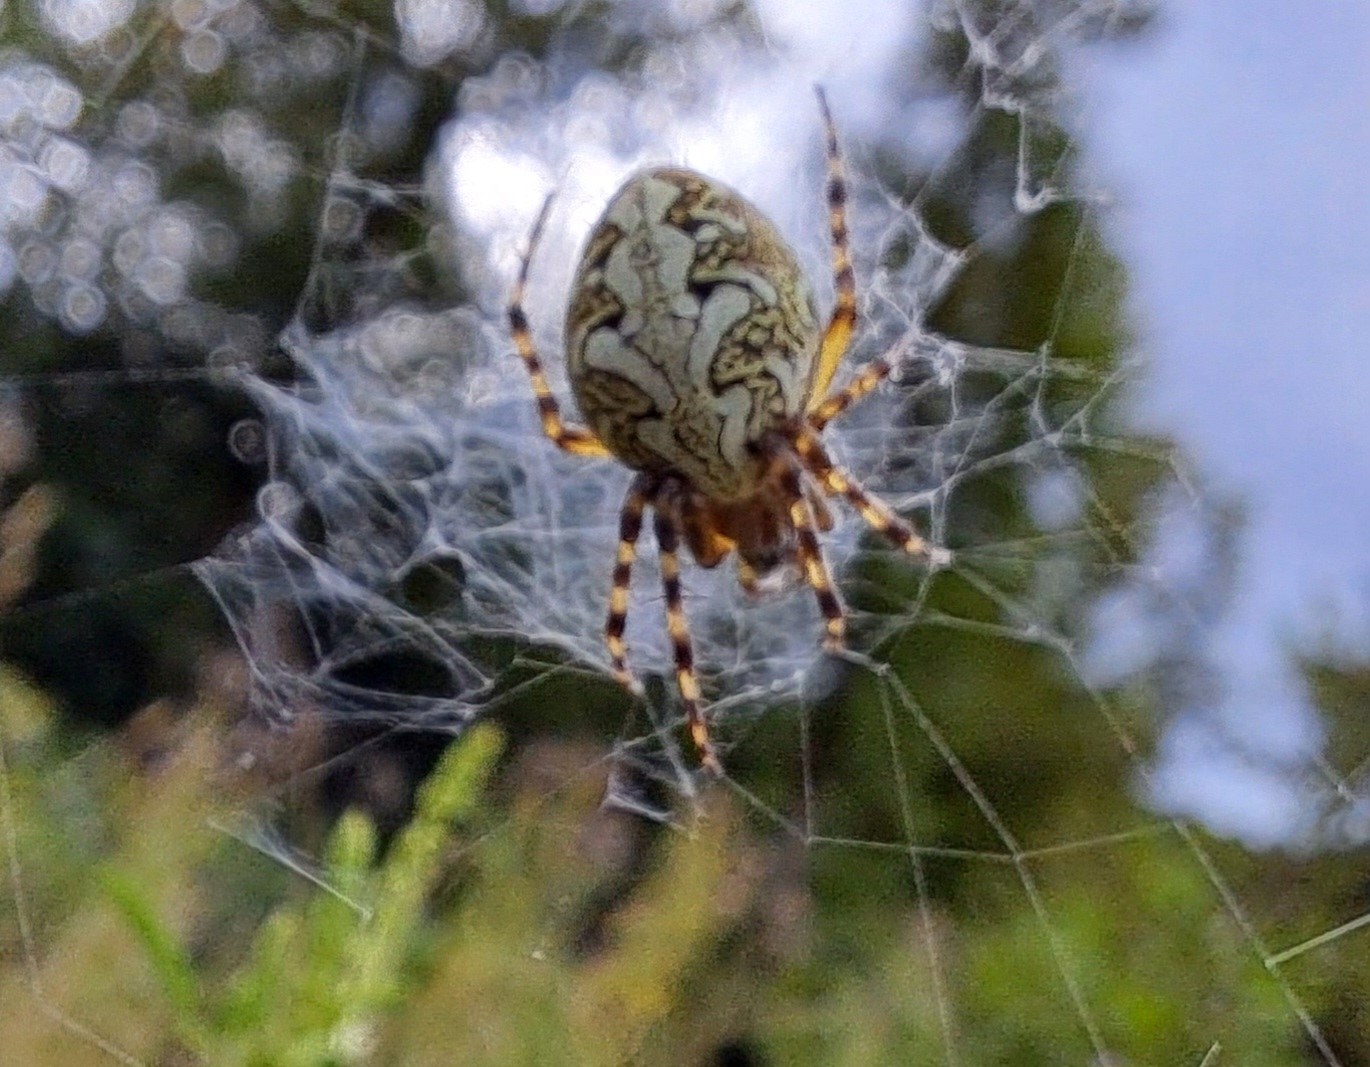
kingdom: Animalia
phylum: Arthropoda
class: Arachnida
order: Araneae
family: Araneidae
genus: Aculepeira
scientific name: Aculepeira ceropegia
